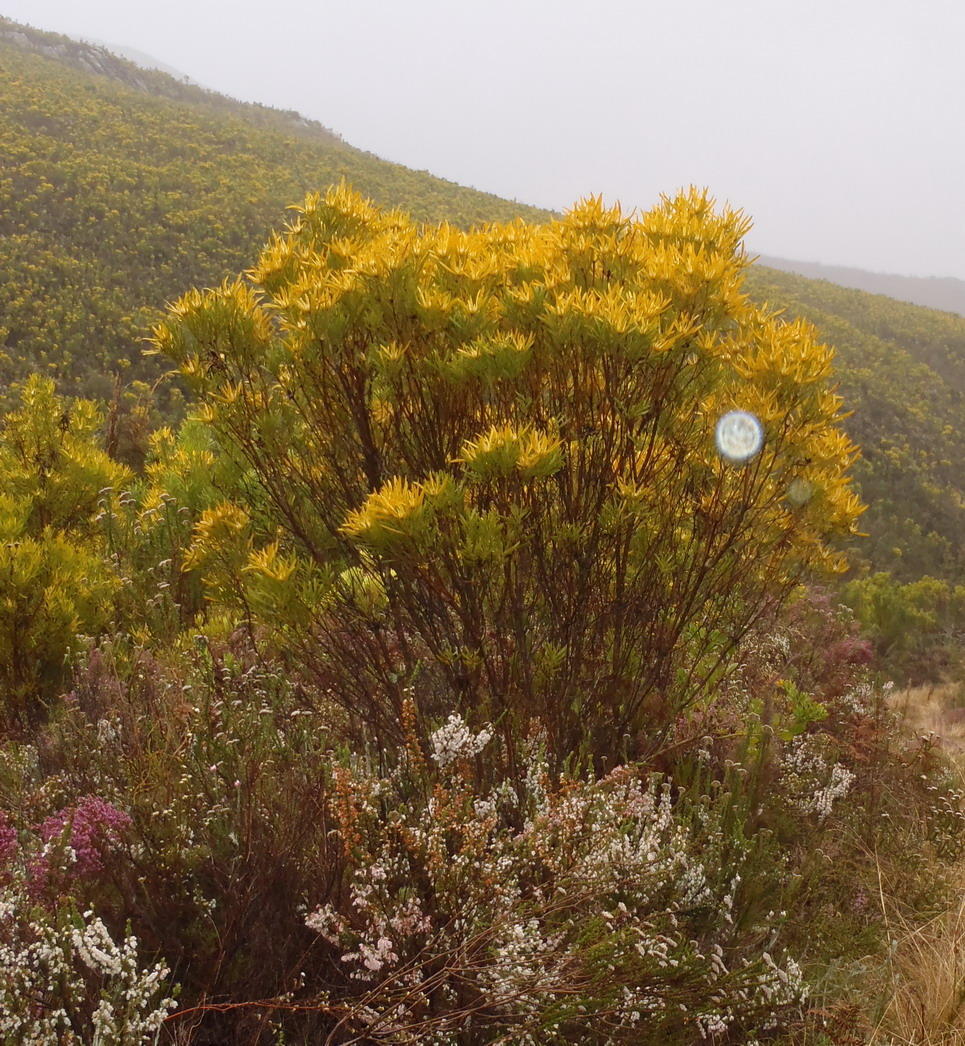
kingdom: Plantae
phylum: Tracheophyta
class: Magnoliopsida
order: Proteales
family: Proteaceae
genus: Leucadendron
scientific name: Leucadendron eucalyptifolium
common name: Gum-leaved conebush
